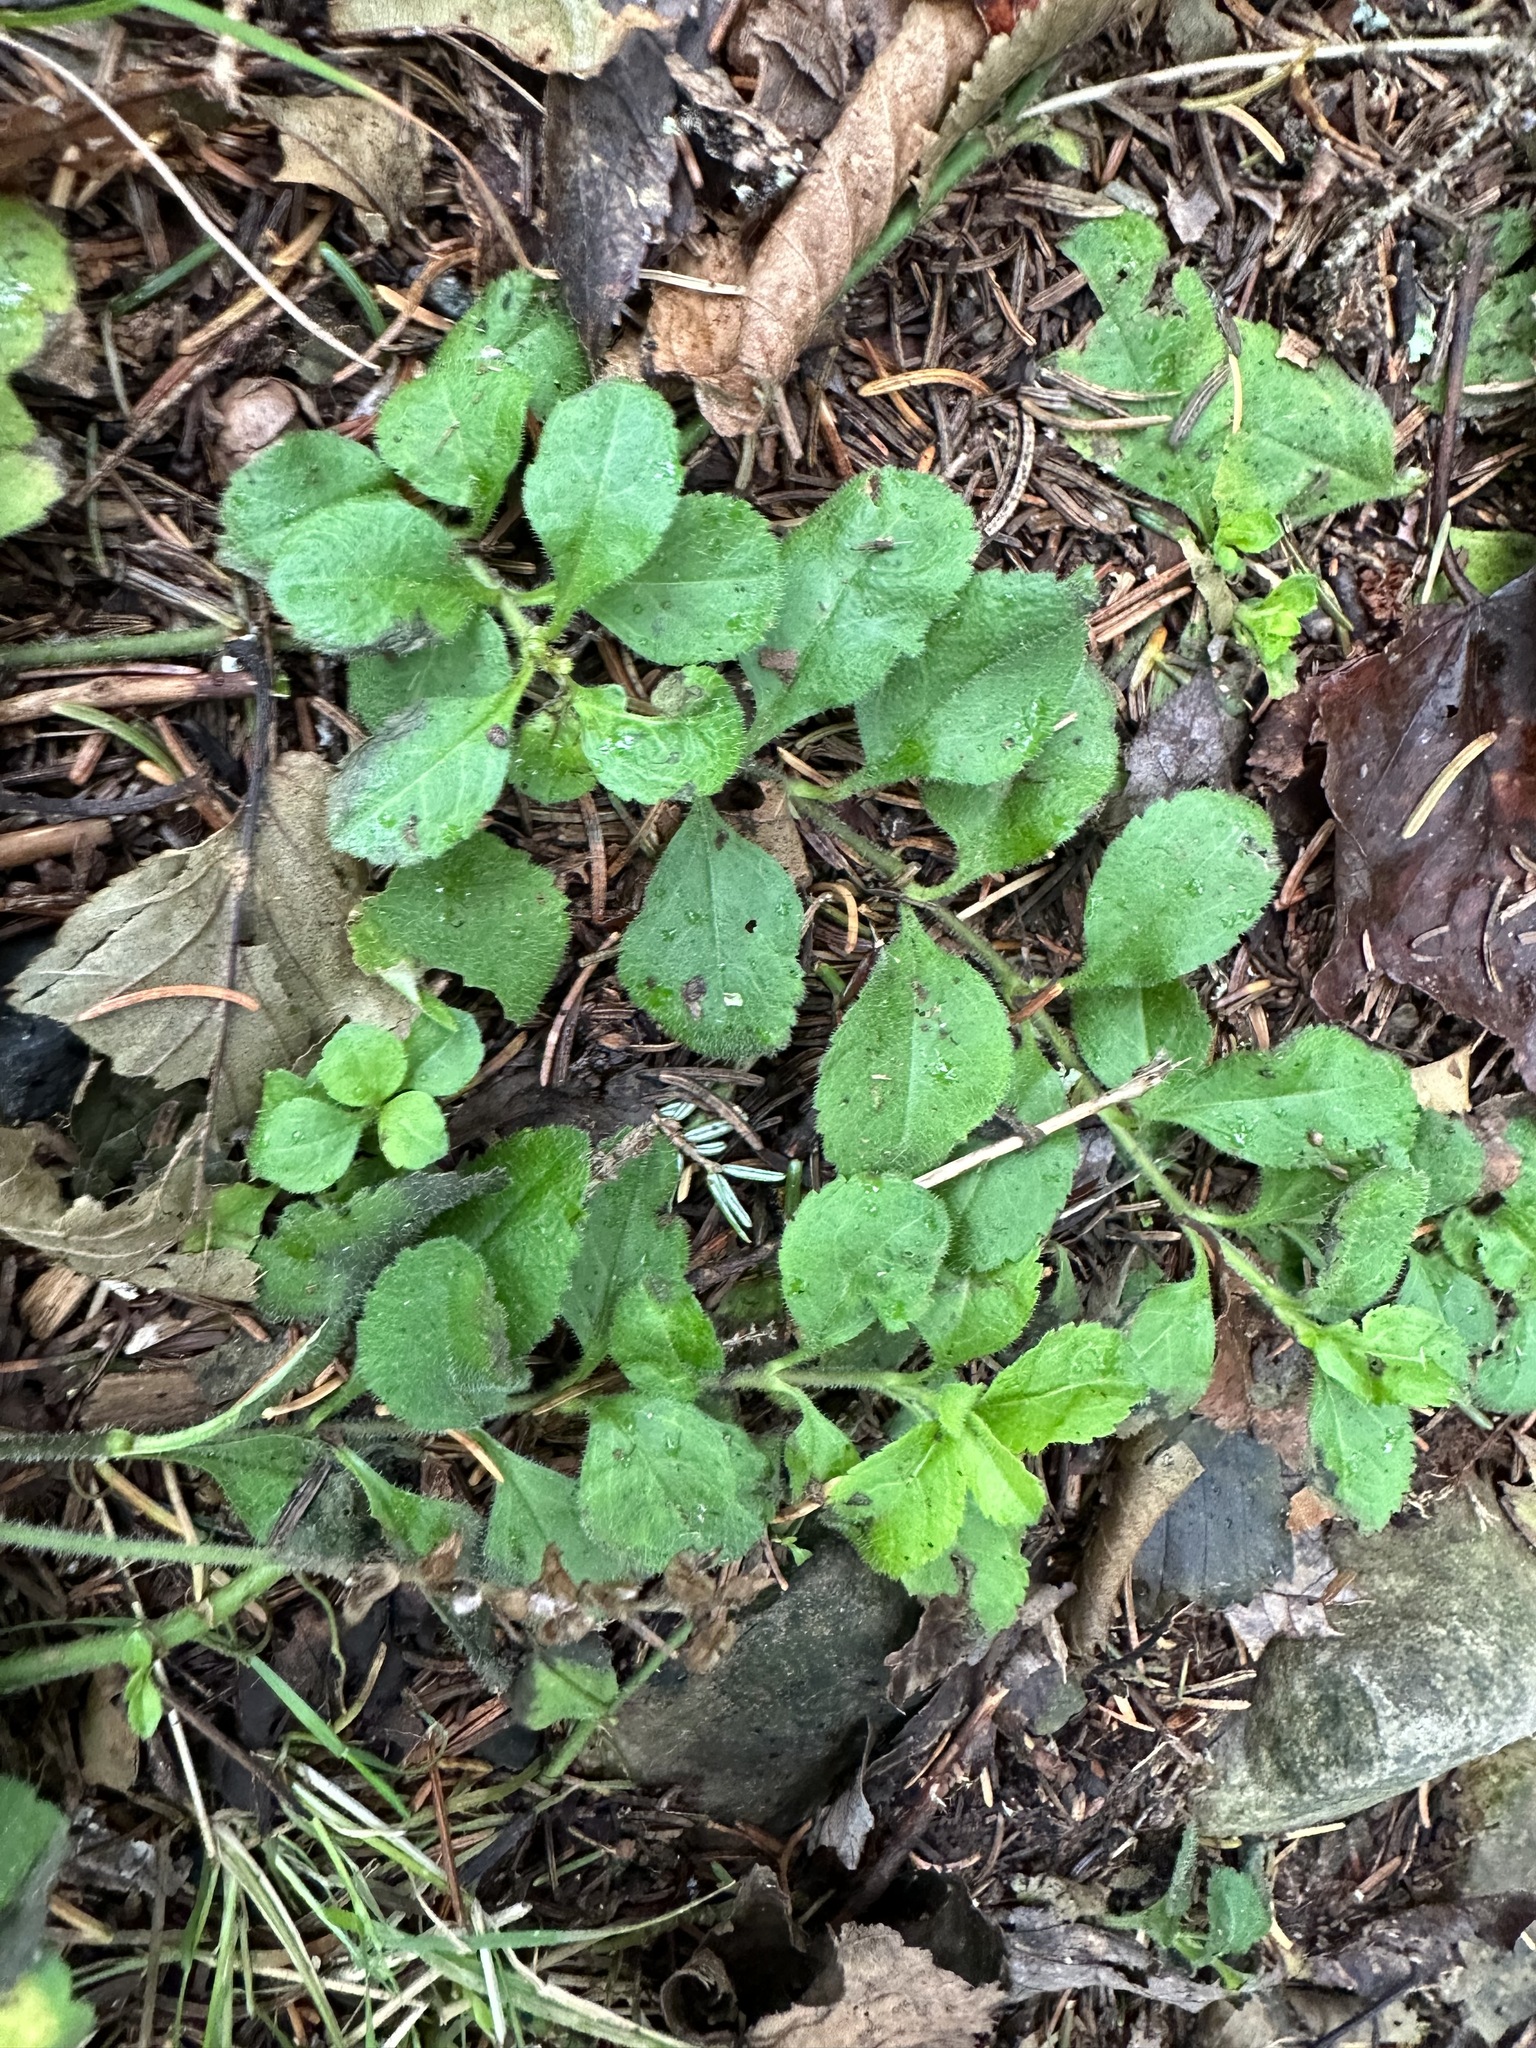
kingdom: Plantae
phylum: Tracheophyta
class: Magnoliopsida
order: Lamiales
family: Plantaginaceae
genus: Veronica
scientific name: Veronica officinalis
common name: Common speedwell
